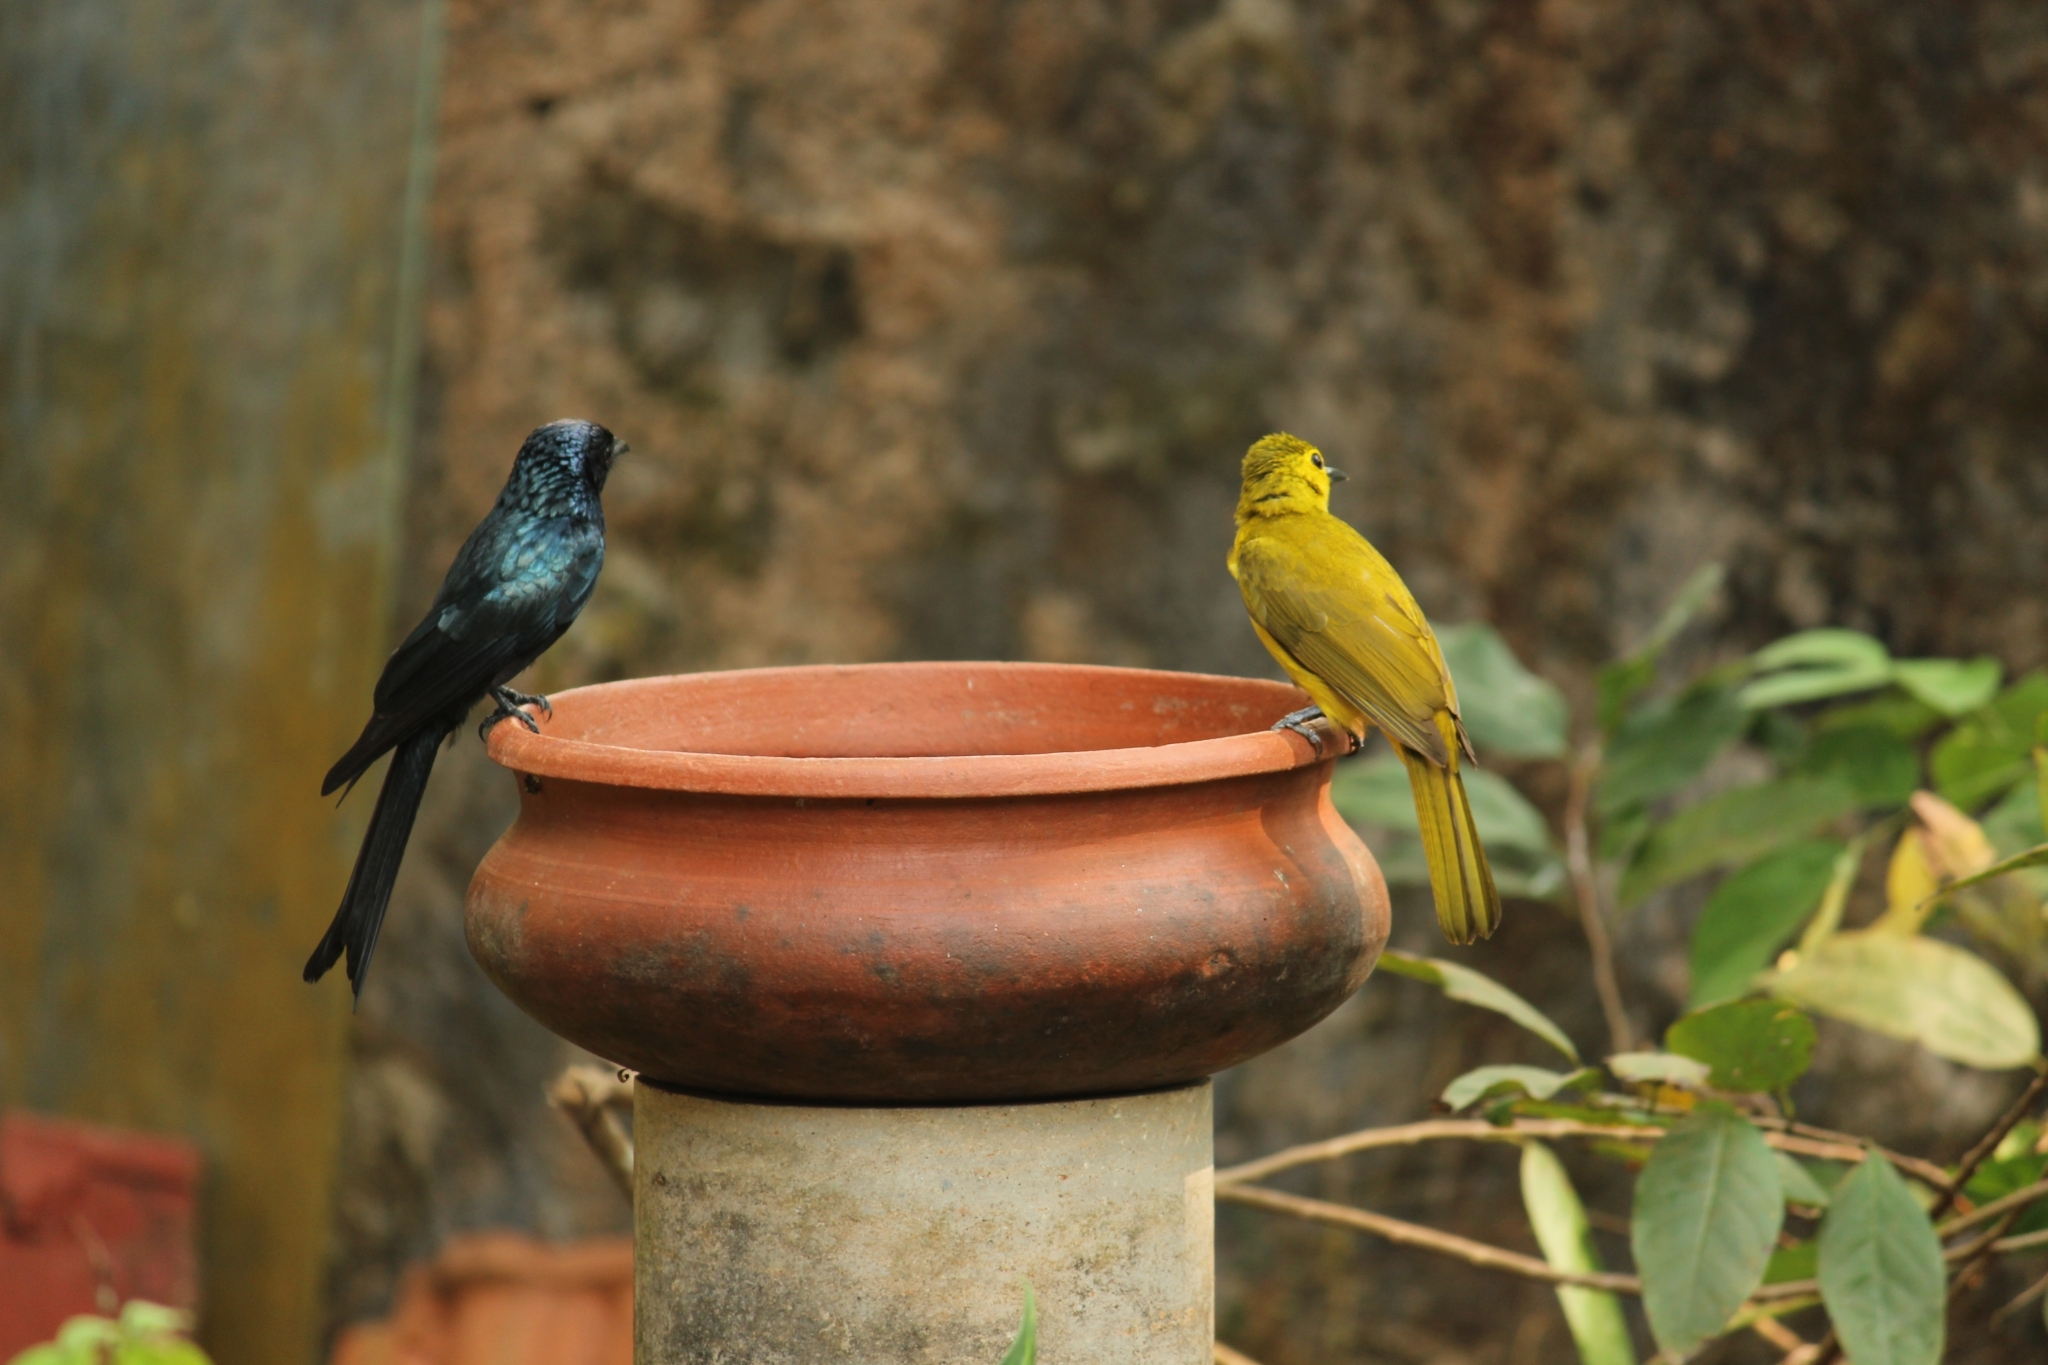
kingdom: Animalia
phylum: Chordata
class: Aves
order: Passeriformes
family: Aegithinidae
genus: Aegithina
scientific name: Aegithina tiphia
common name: Common iora
